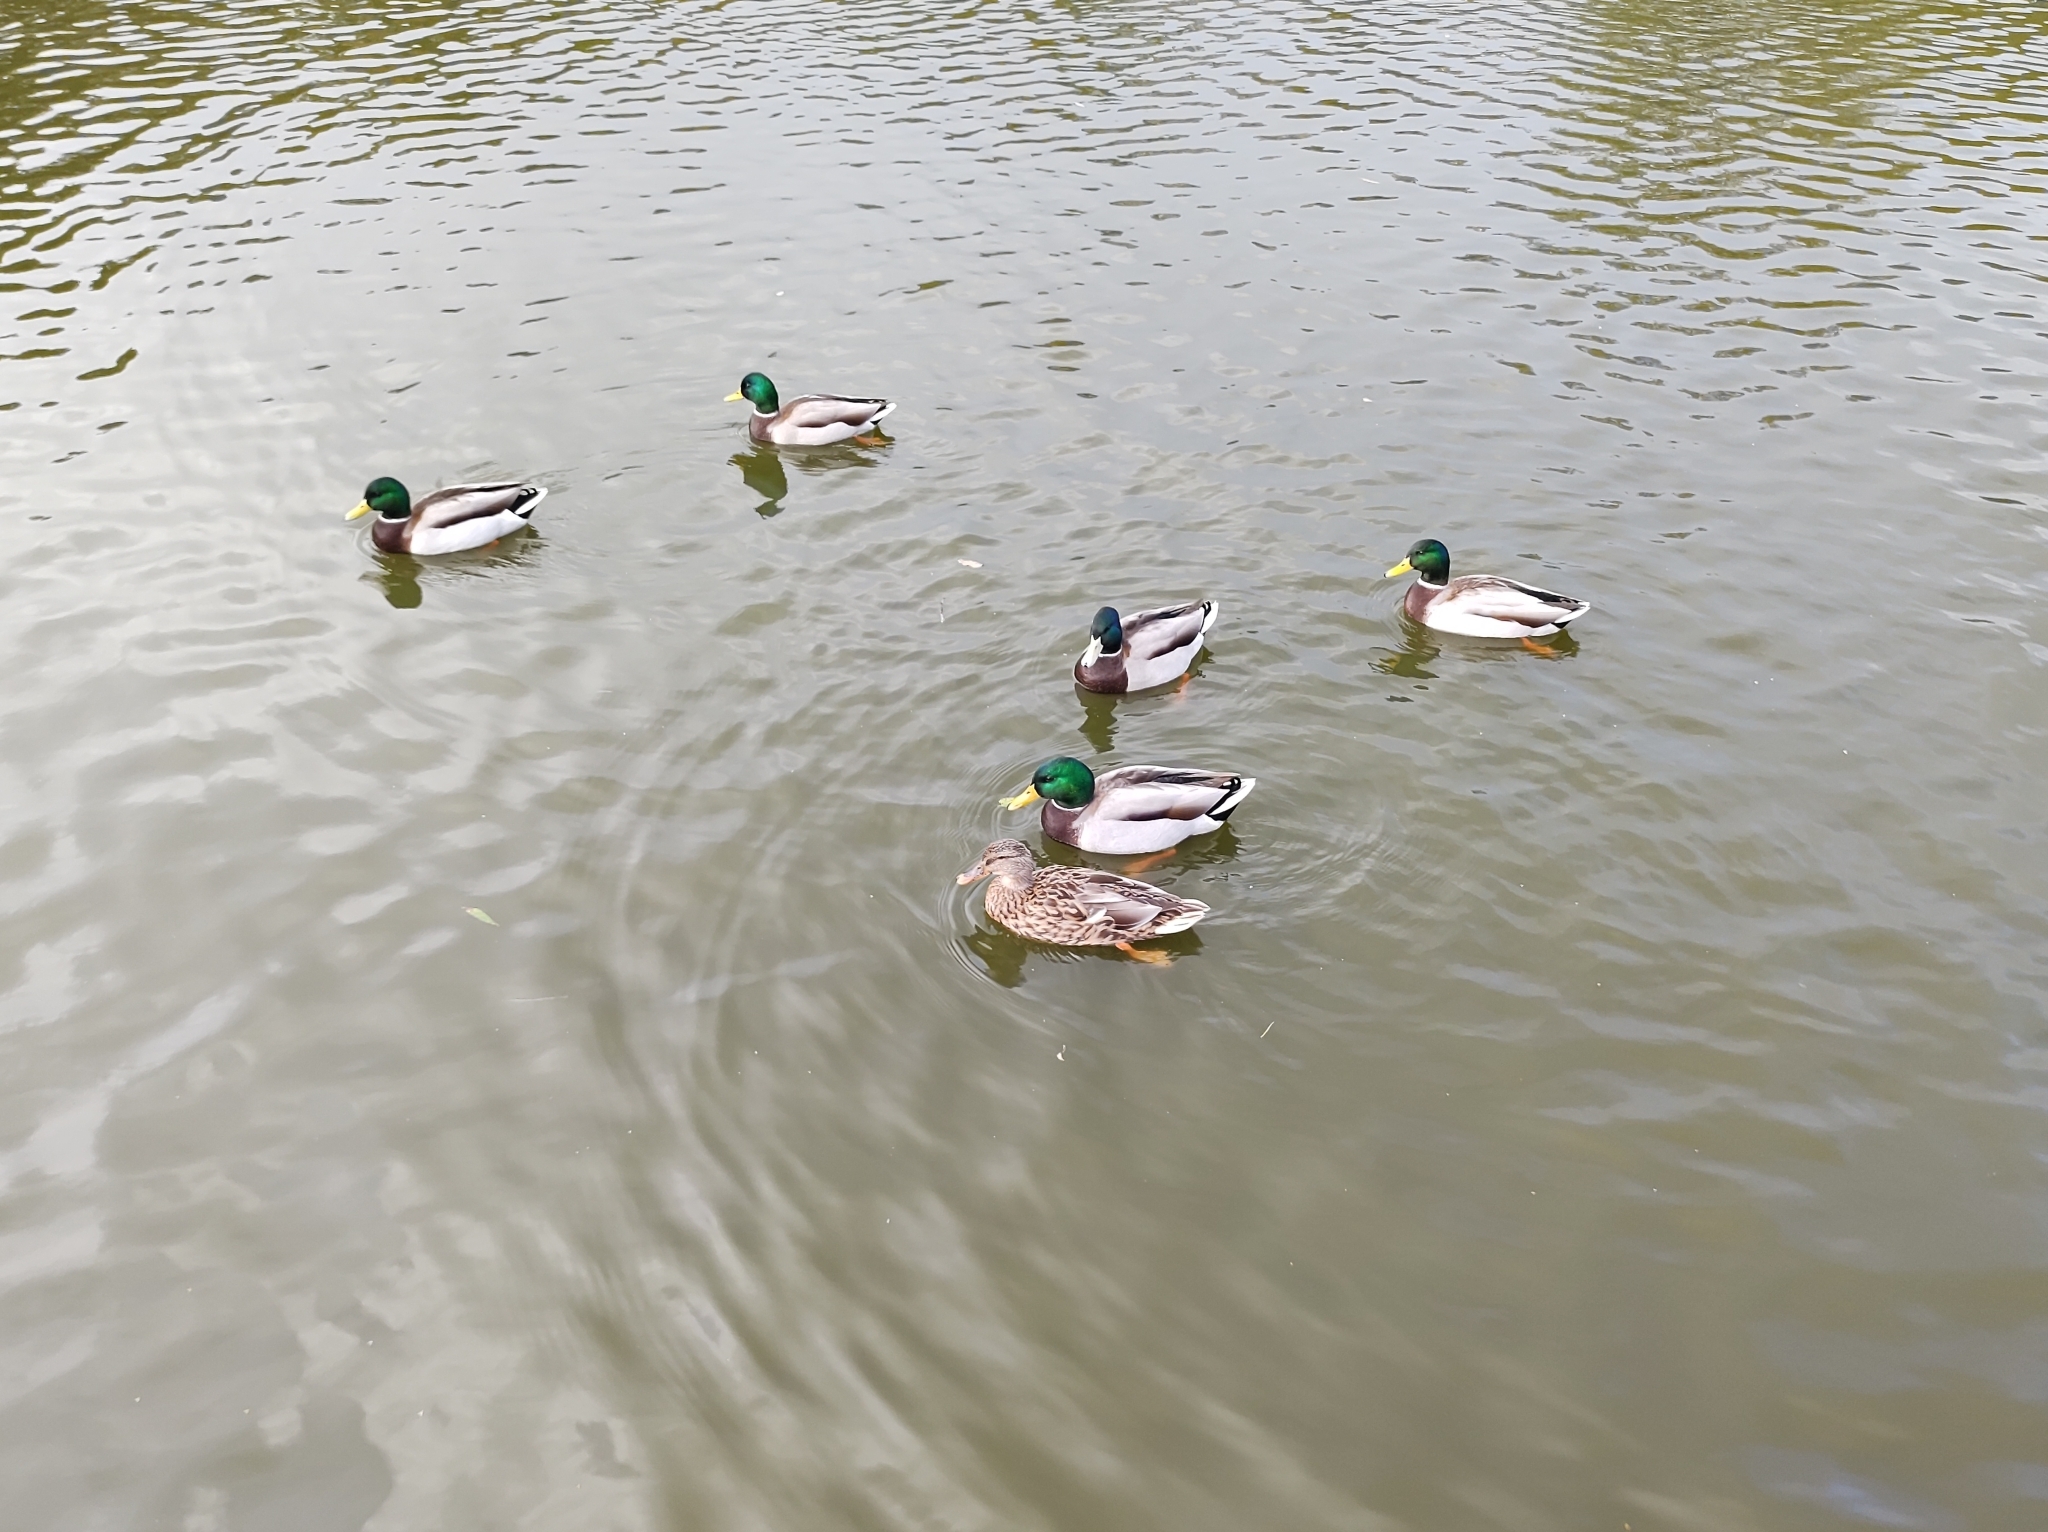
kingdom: Animalia
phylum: Chordata
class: Aves
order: Anseriformes
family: Anatidae
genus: Anas
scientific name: Anas platyrhynchos
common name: Mallard
